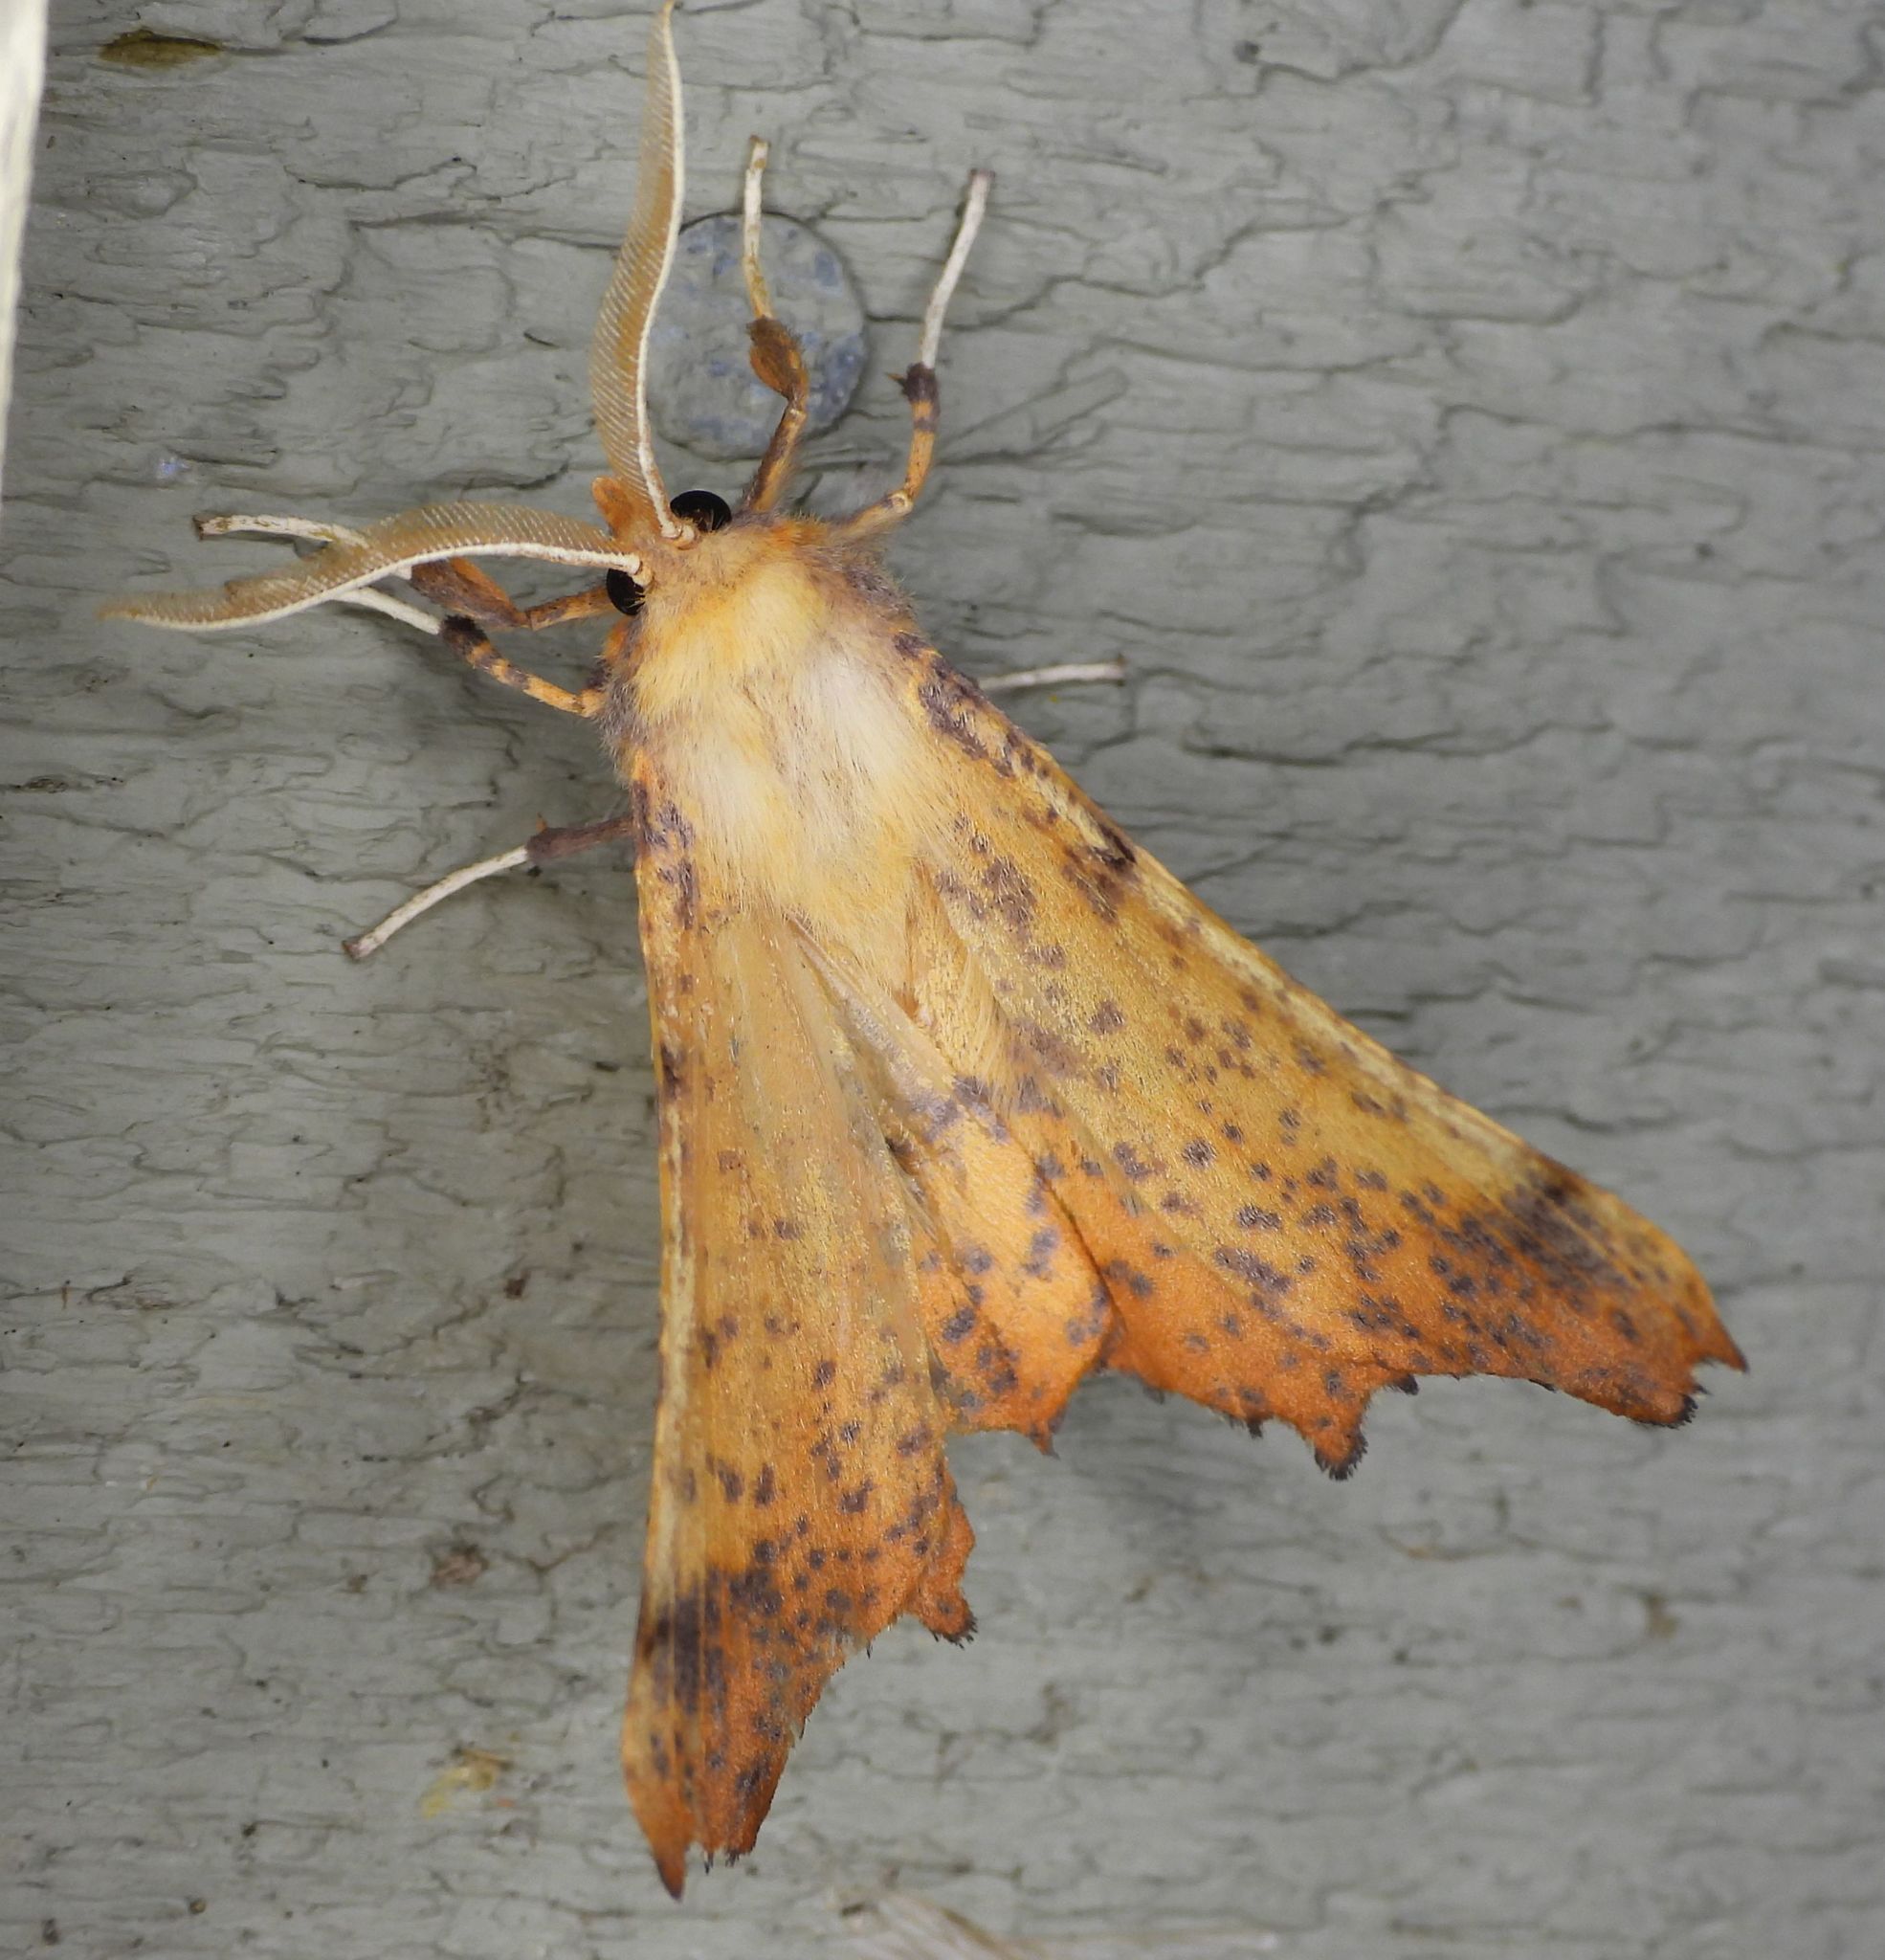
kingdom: Animalia
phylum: Arthropoda
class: Insecta
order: Lepidoptera
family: Geometridae
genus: Ennomos
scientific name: Ennomos magnaria
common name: Maple spanworm
